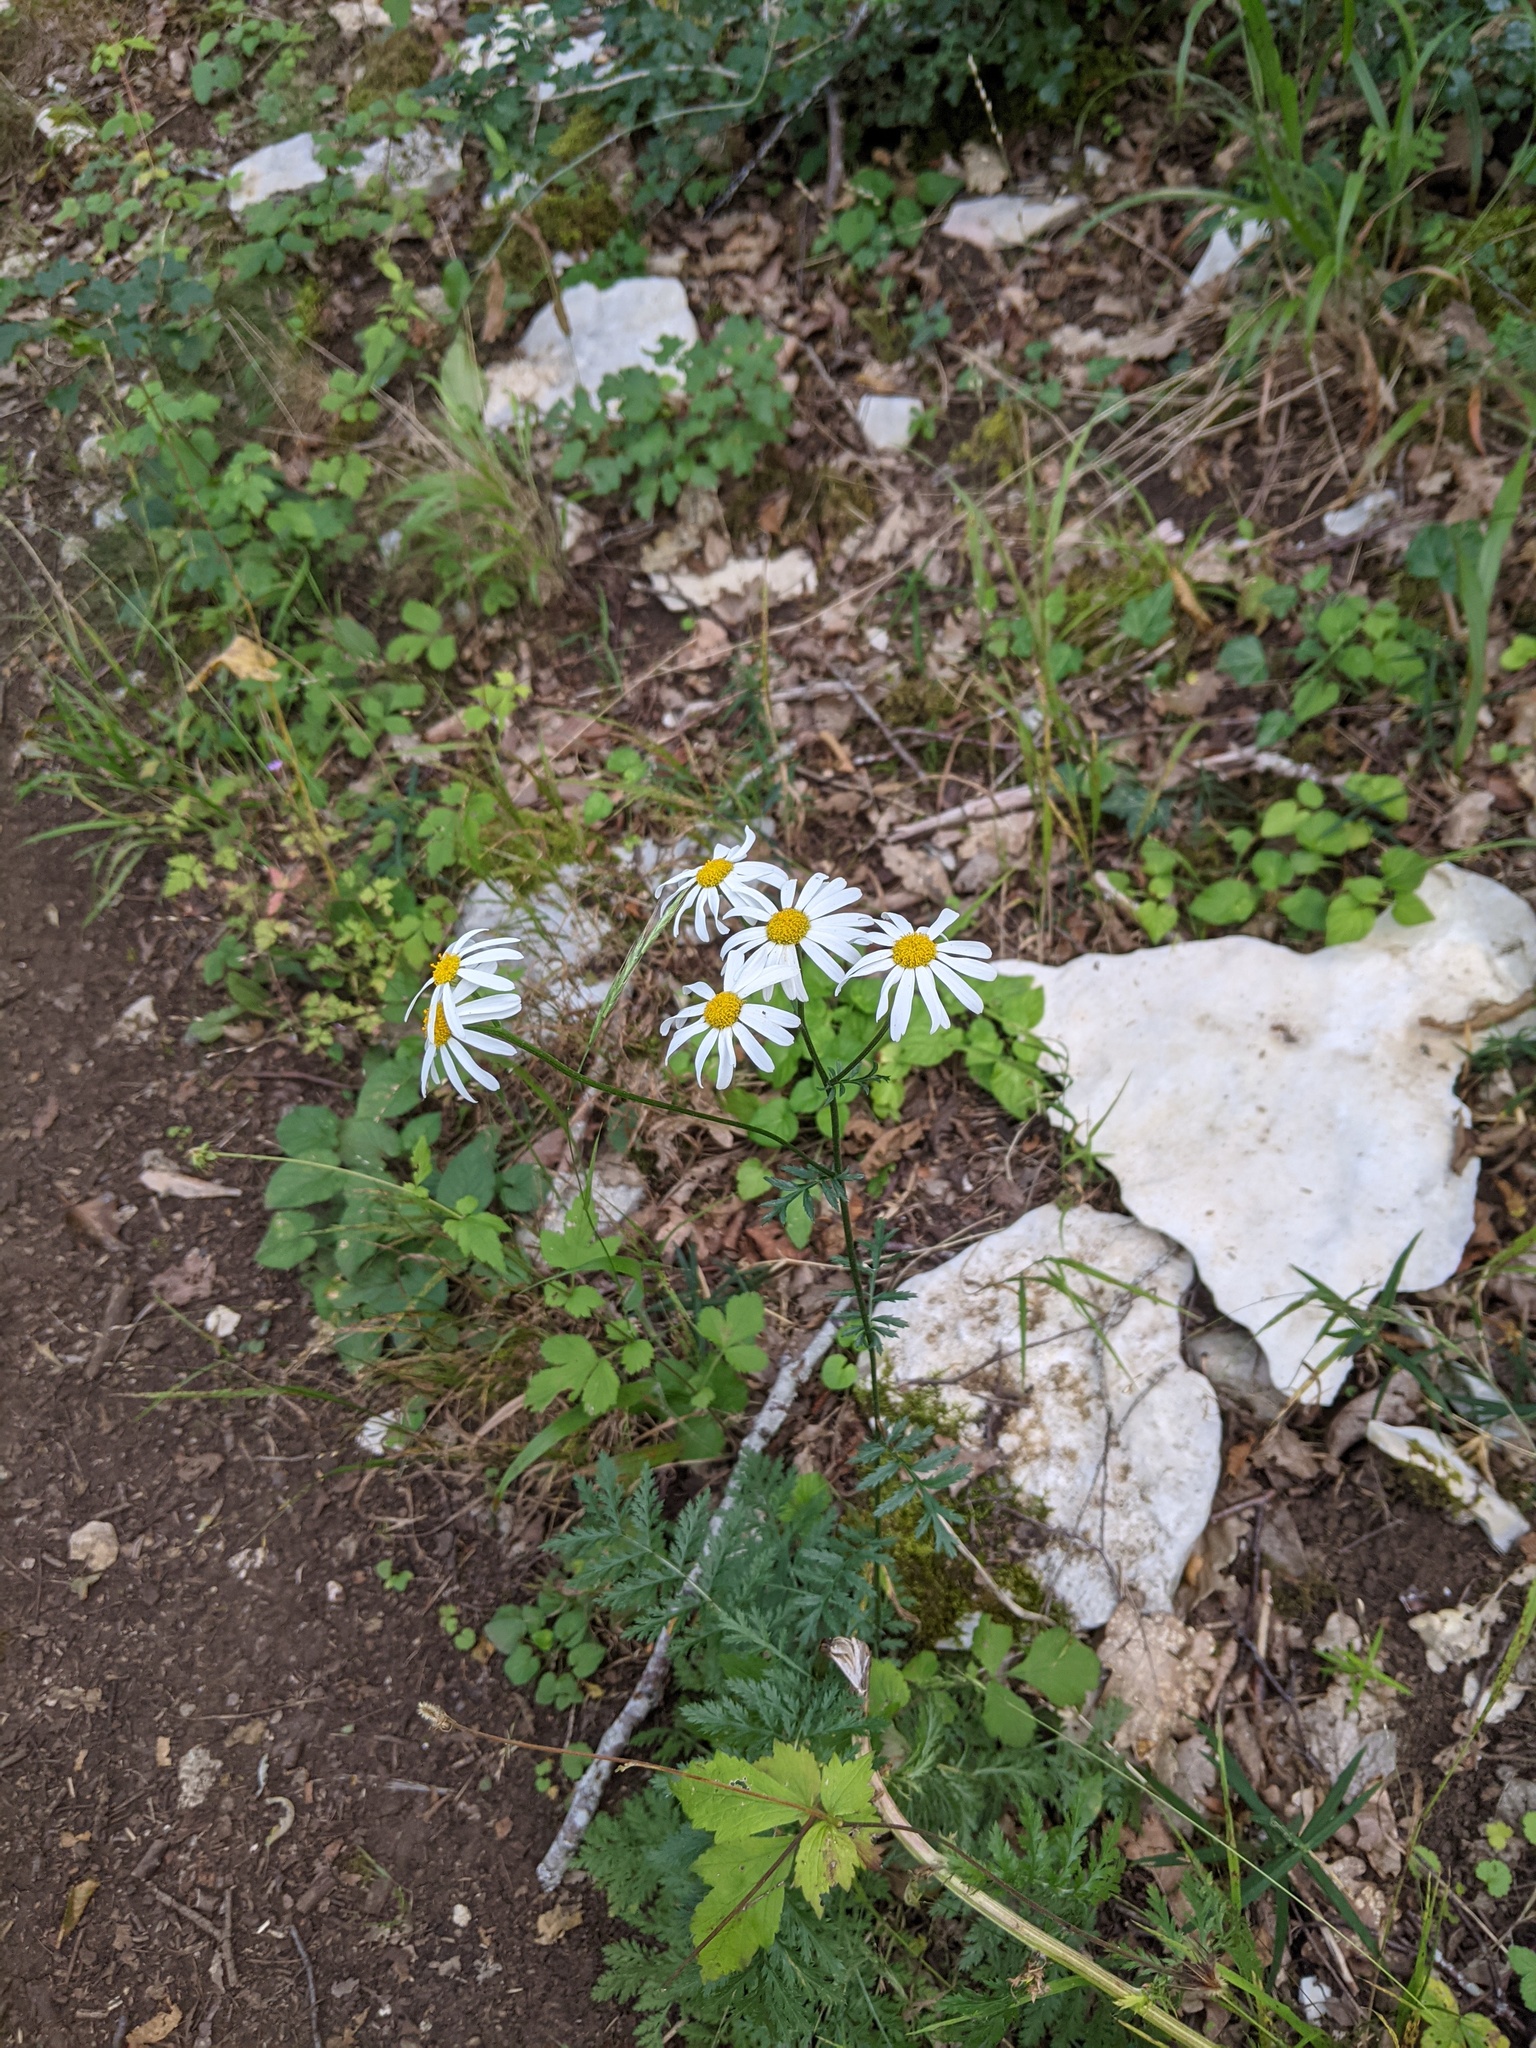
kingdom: Plantae
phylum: Tracheophyta
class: Magnoliopsida
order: Asterales
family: Asteraceae
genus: Tanacetum
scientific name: Tanacetum corymbosum
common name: Scentless feverfew
